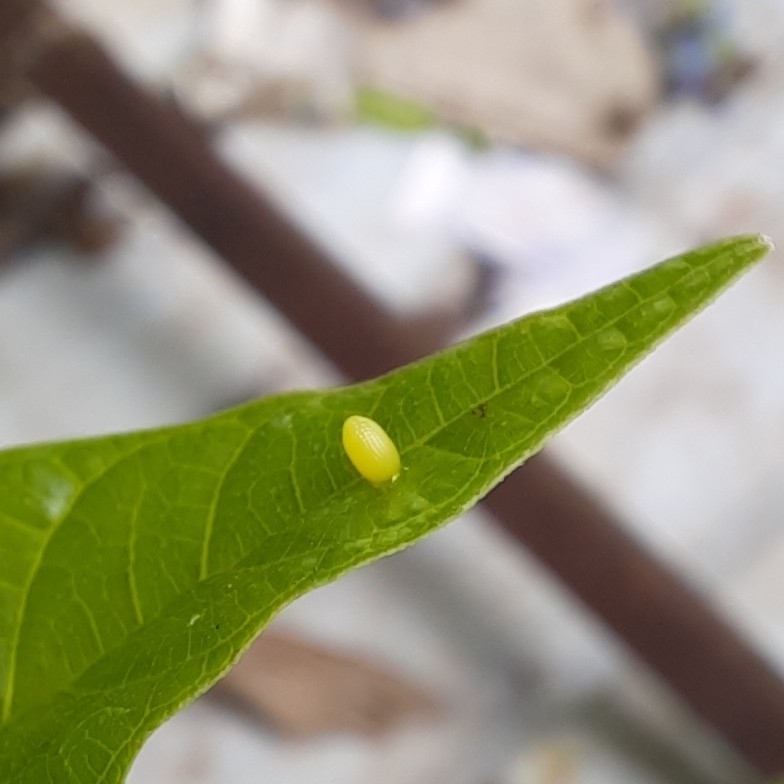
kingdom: Animalia
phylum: Arthropoda
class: Insecta
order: Lepidoptera
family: Nymphalidae
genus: Euploea
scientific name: Euploea core
